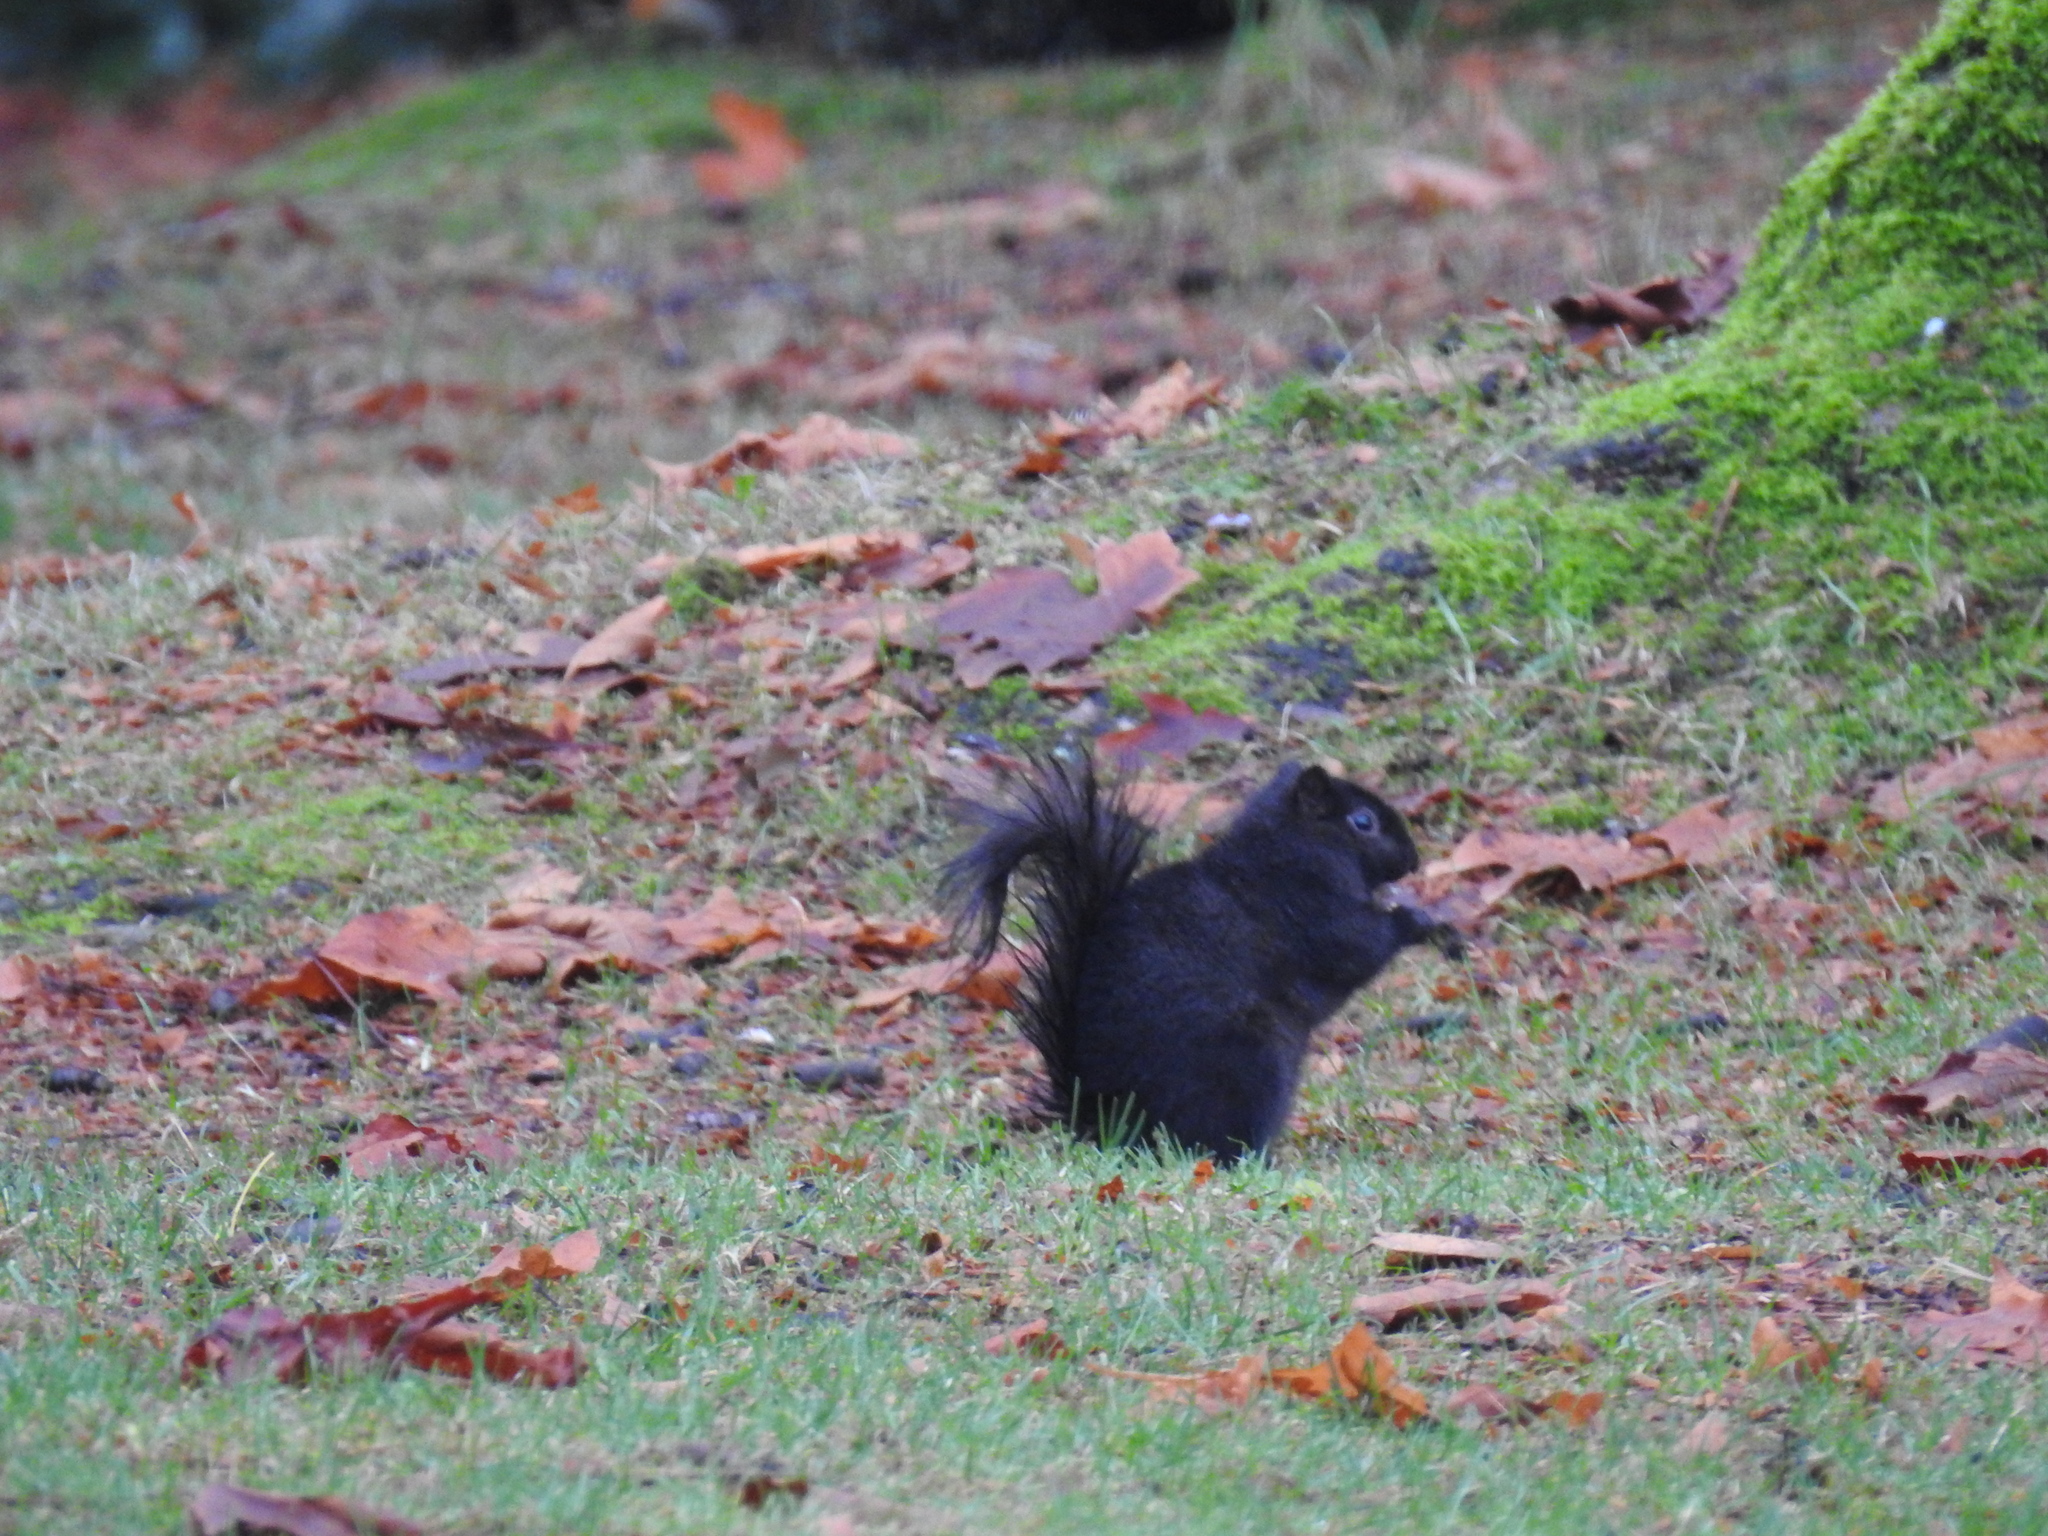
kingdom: Animalia
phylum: Chordata
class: Mammalia
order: Rodentia
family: Sciuridae
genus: Sciurus
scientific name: Sciurus carolinensis
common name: Eastern gray squirrel
